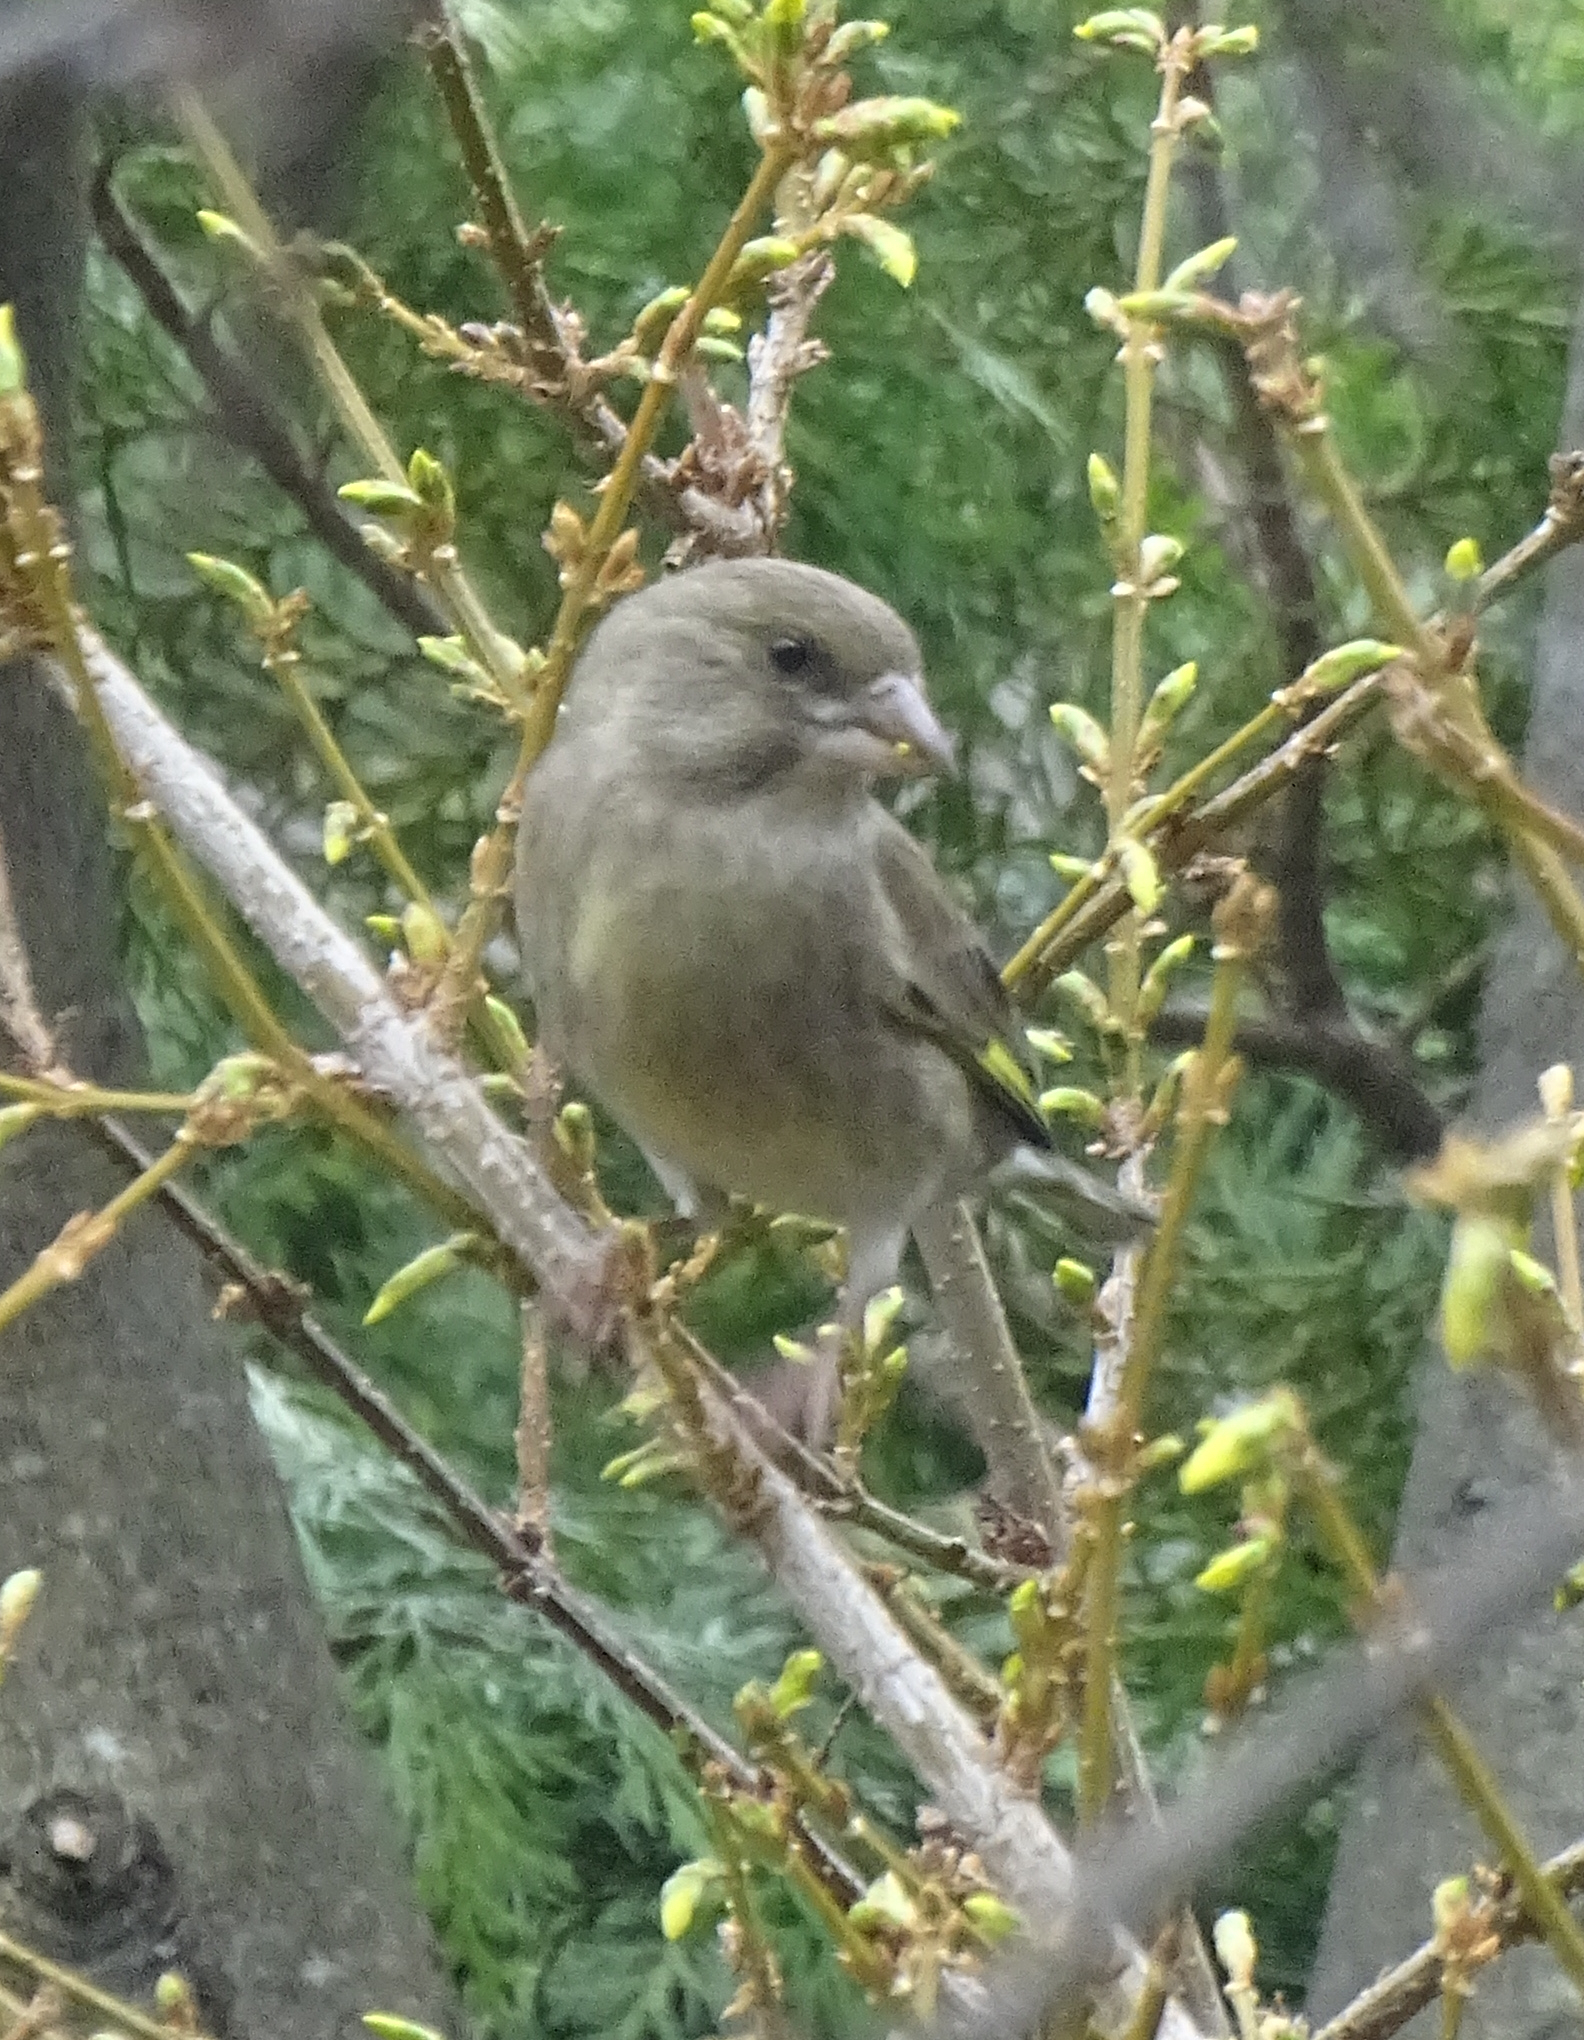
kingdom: Plantae
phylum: Tracheophyta
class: Liliopsida
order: Poales
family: Poaceae
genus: Chloris
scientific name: Chloris chloris
